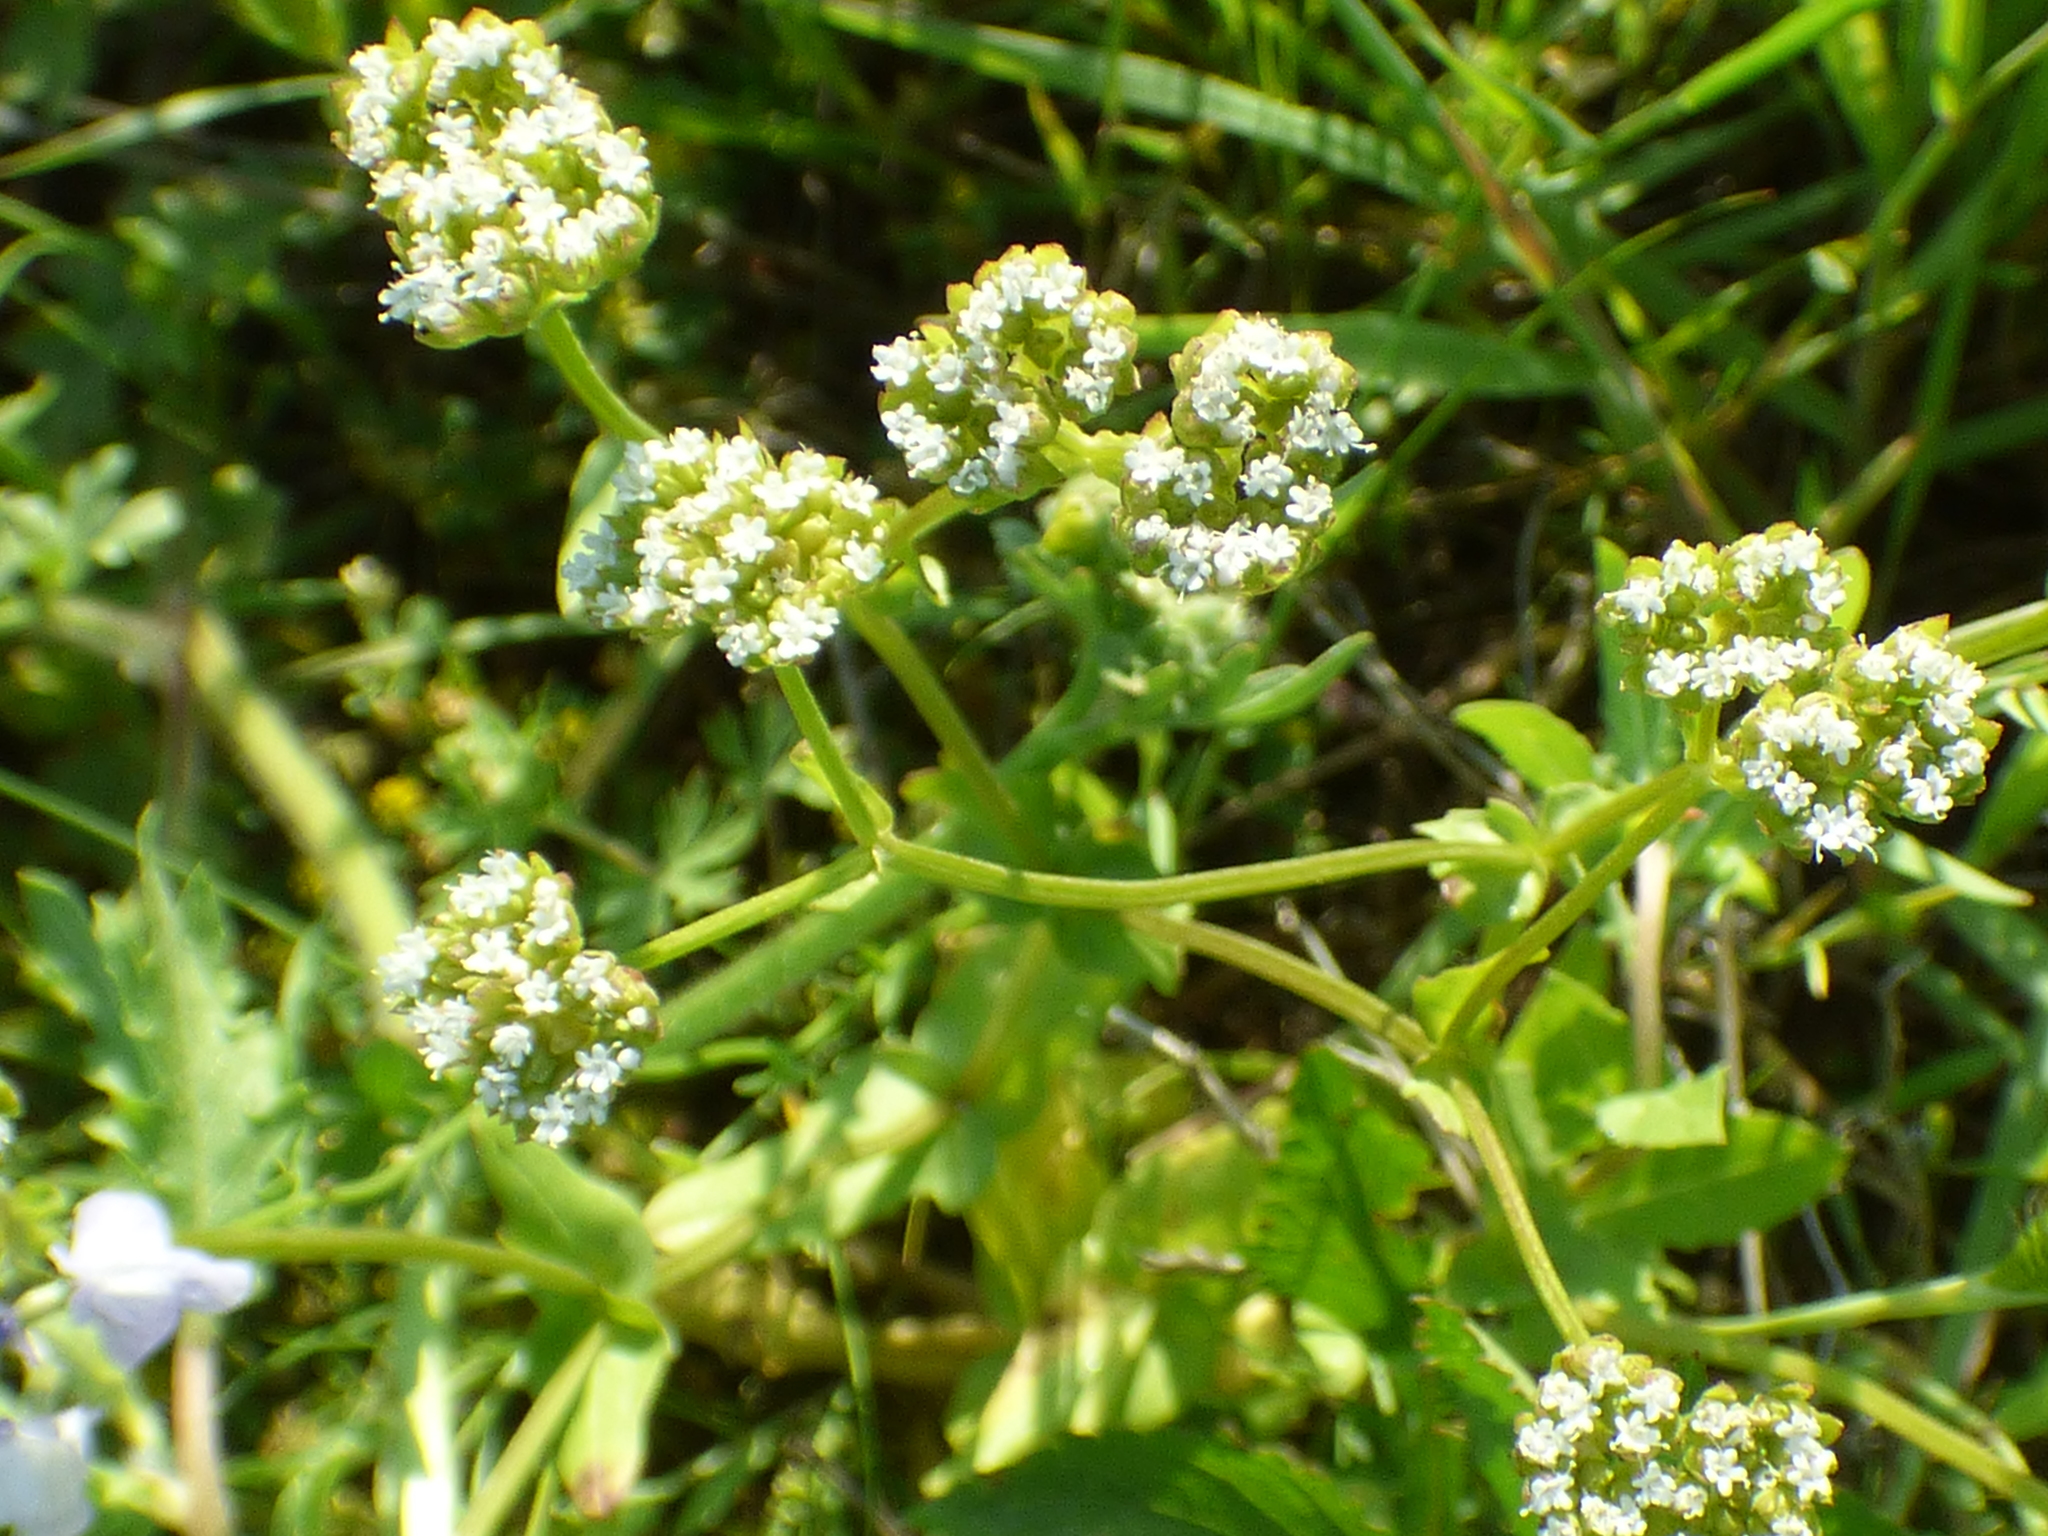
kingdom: Plantae
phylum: Tracheophyta
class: Magnoliopsida
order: Dipsacales
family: Caprifoliaceae
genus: Valerianella
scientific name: Valerianella radiata
